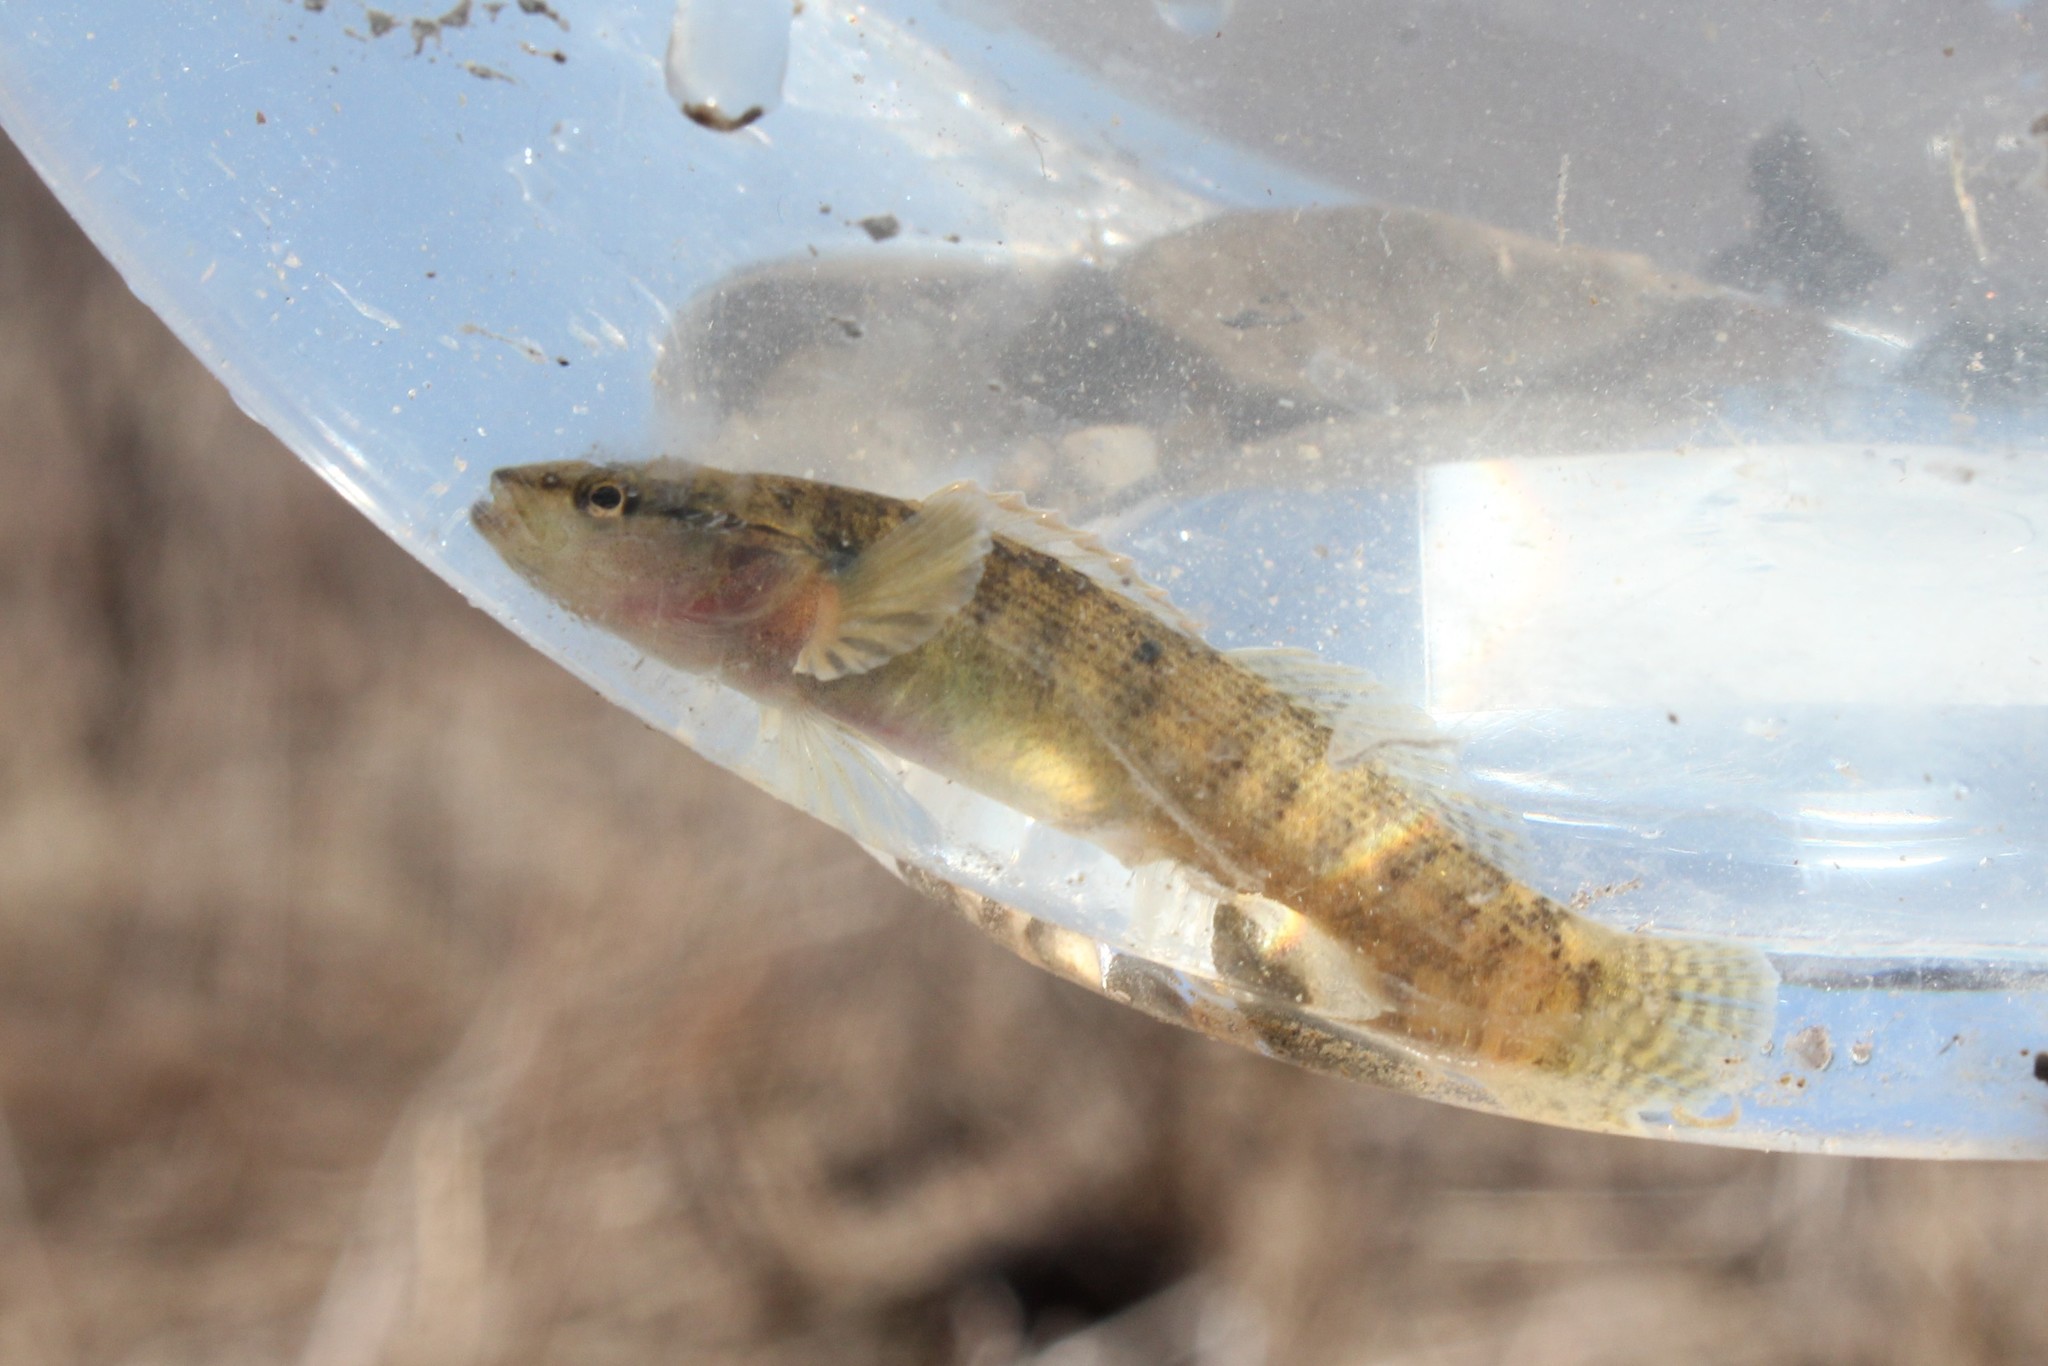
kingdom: Animalia
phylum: Chordata
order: Perciformes
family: Percidae
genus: Etheostoma
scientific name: Etheostoma flabellare
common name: Fantail darter
